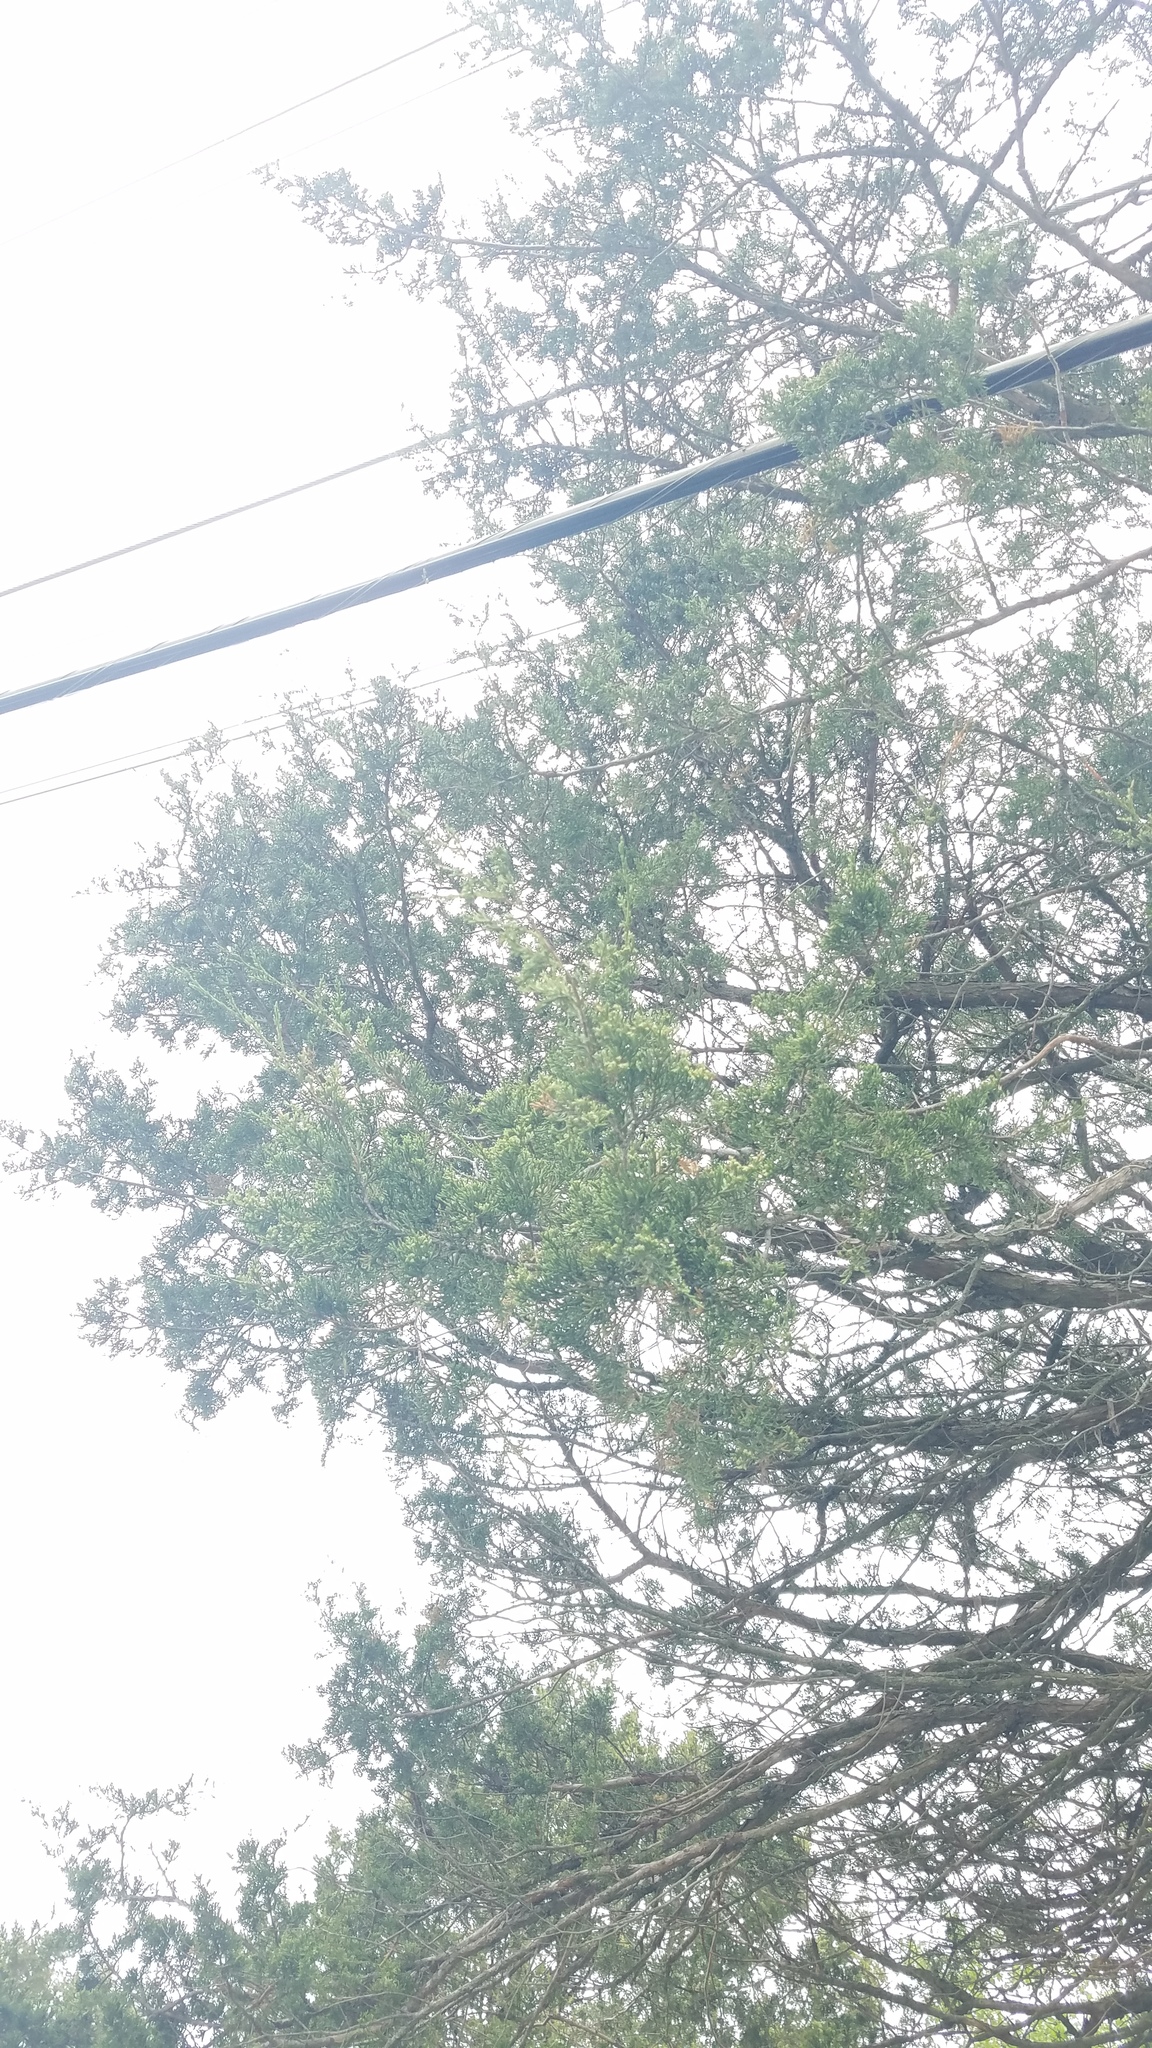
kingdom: Plantae
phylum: Tracheophyta
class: Pinopsida
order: Pinales
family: Cupressaceae
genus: Juniperus
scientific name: Juniperus virginiana
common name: Red juniper
